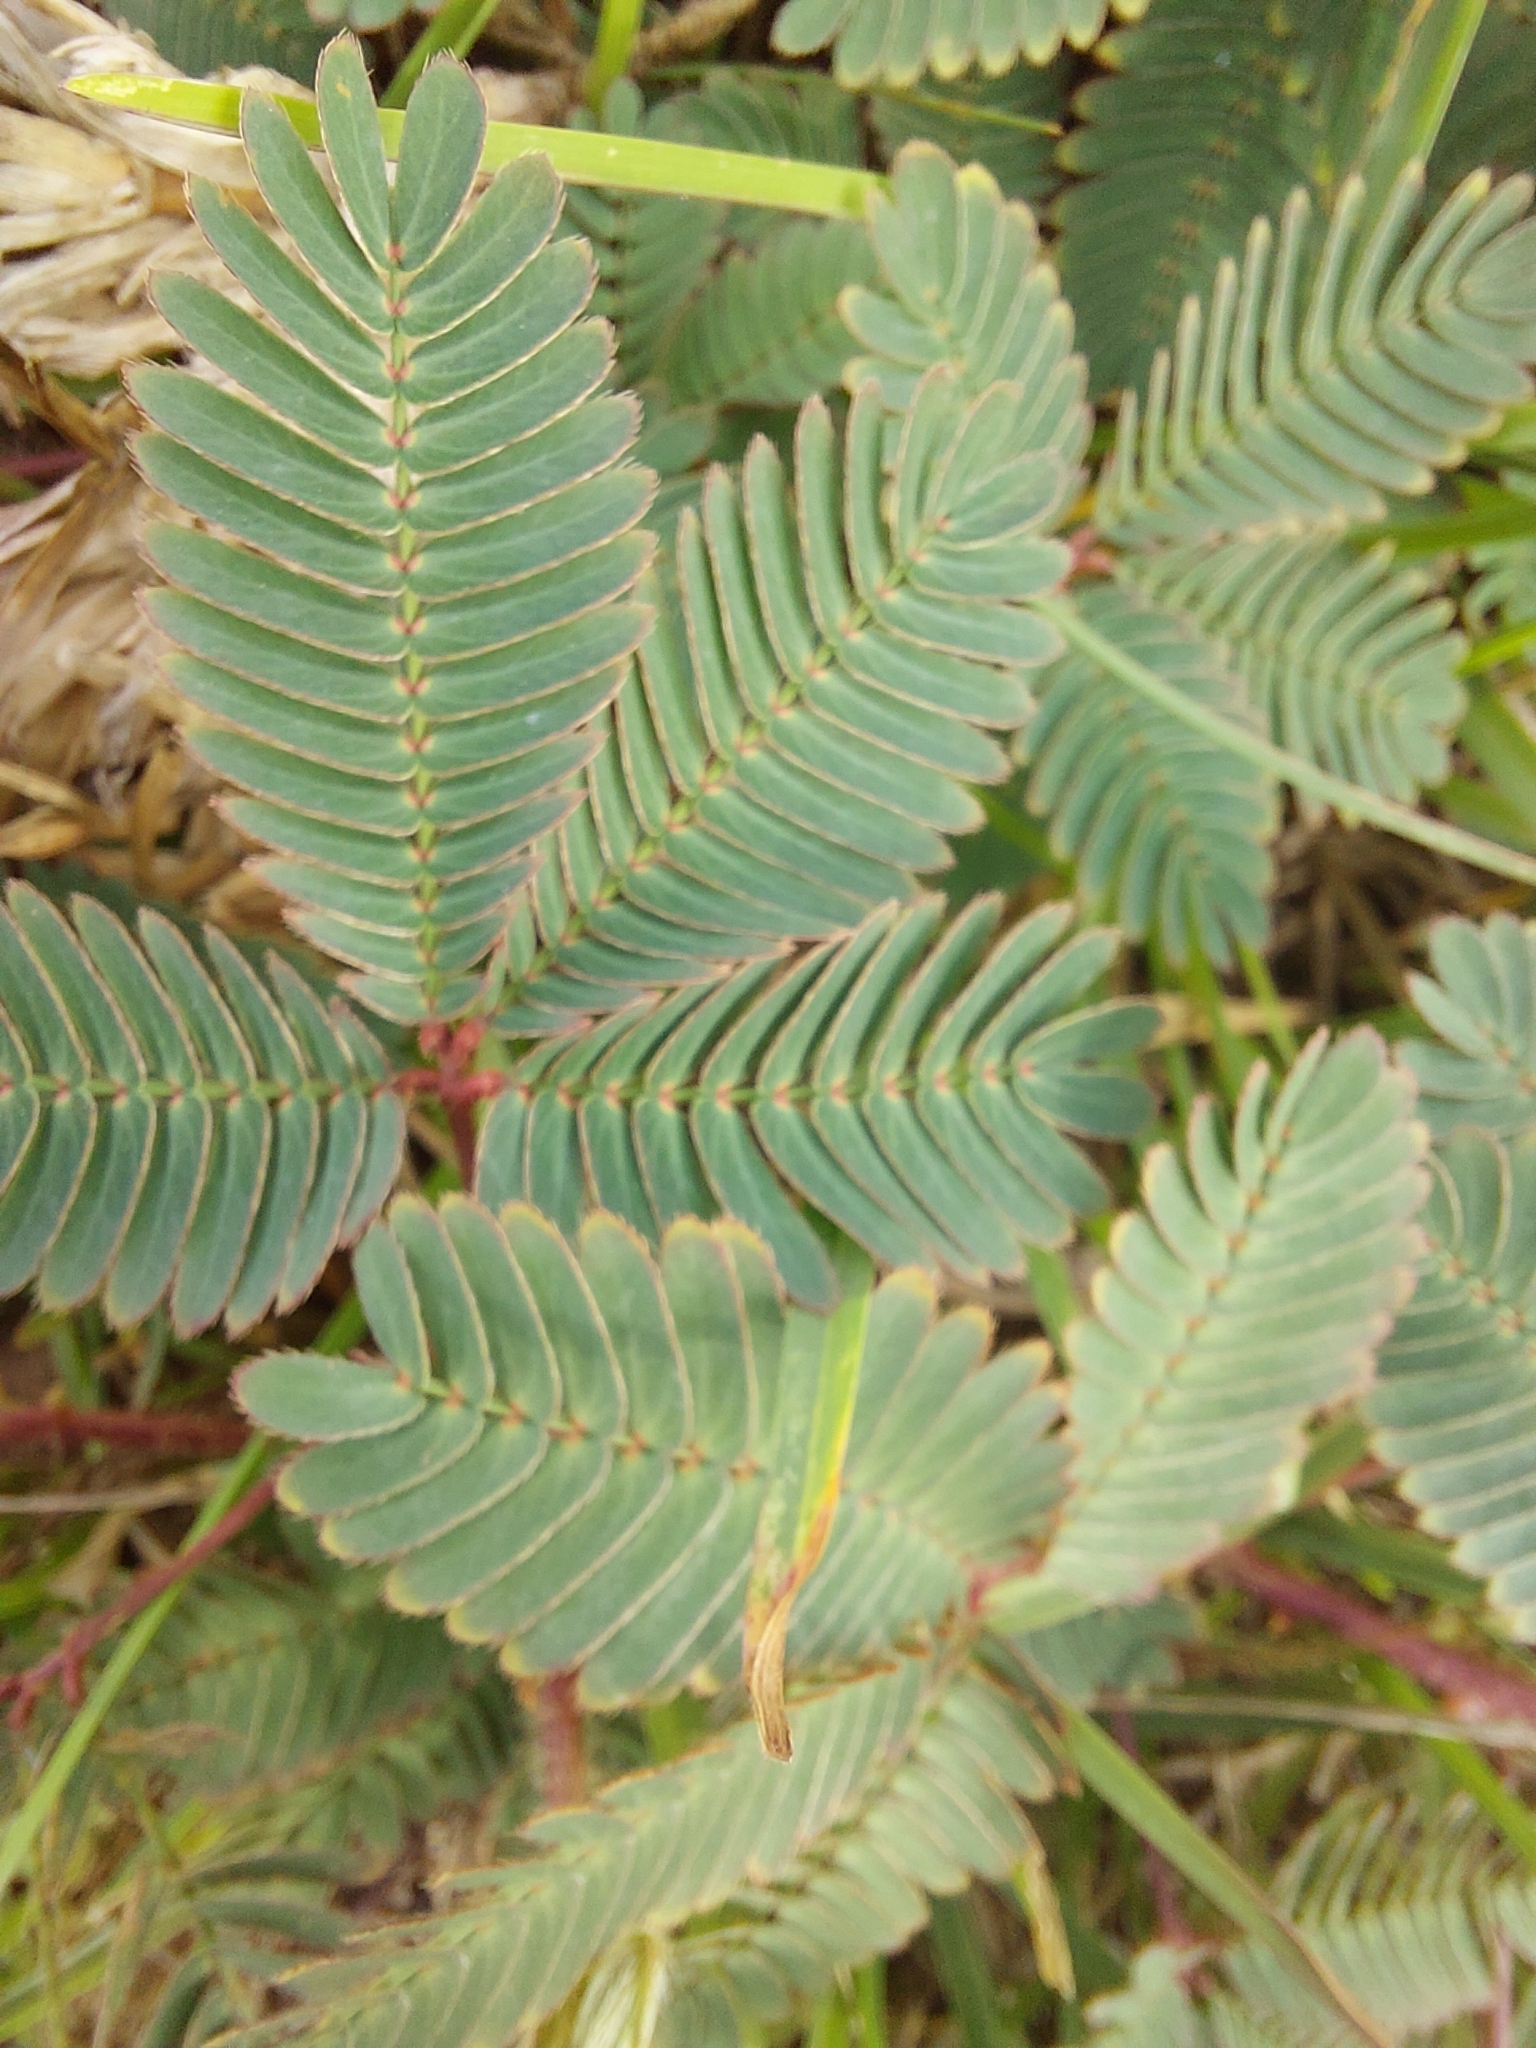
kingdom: Plantae
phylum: Tracheophyta
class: Magnoliopsida
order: Fabales
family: Fabaceae
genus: Mimosa
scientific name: Mimosa pudica
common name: Sensitive plant
